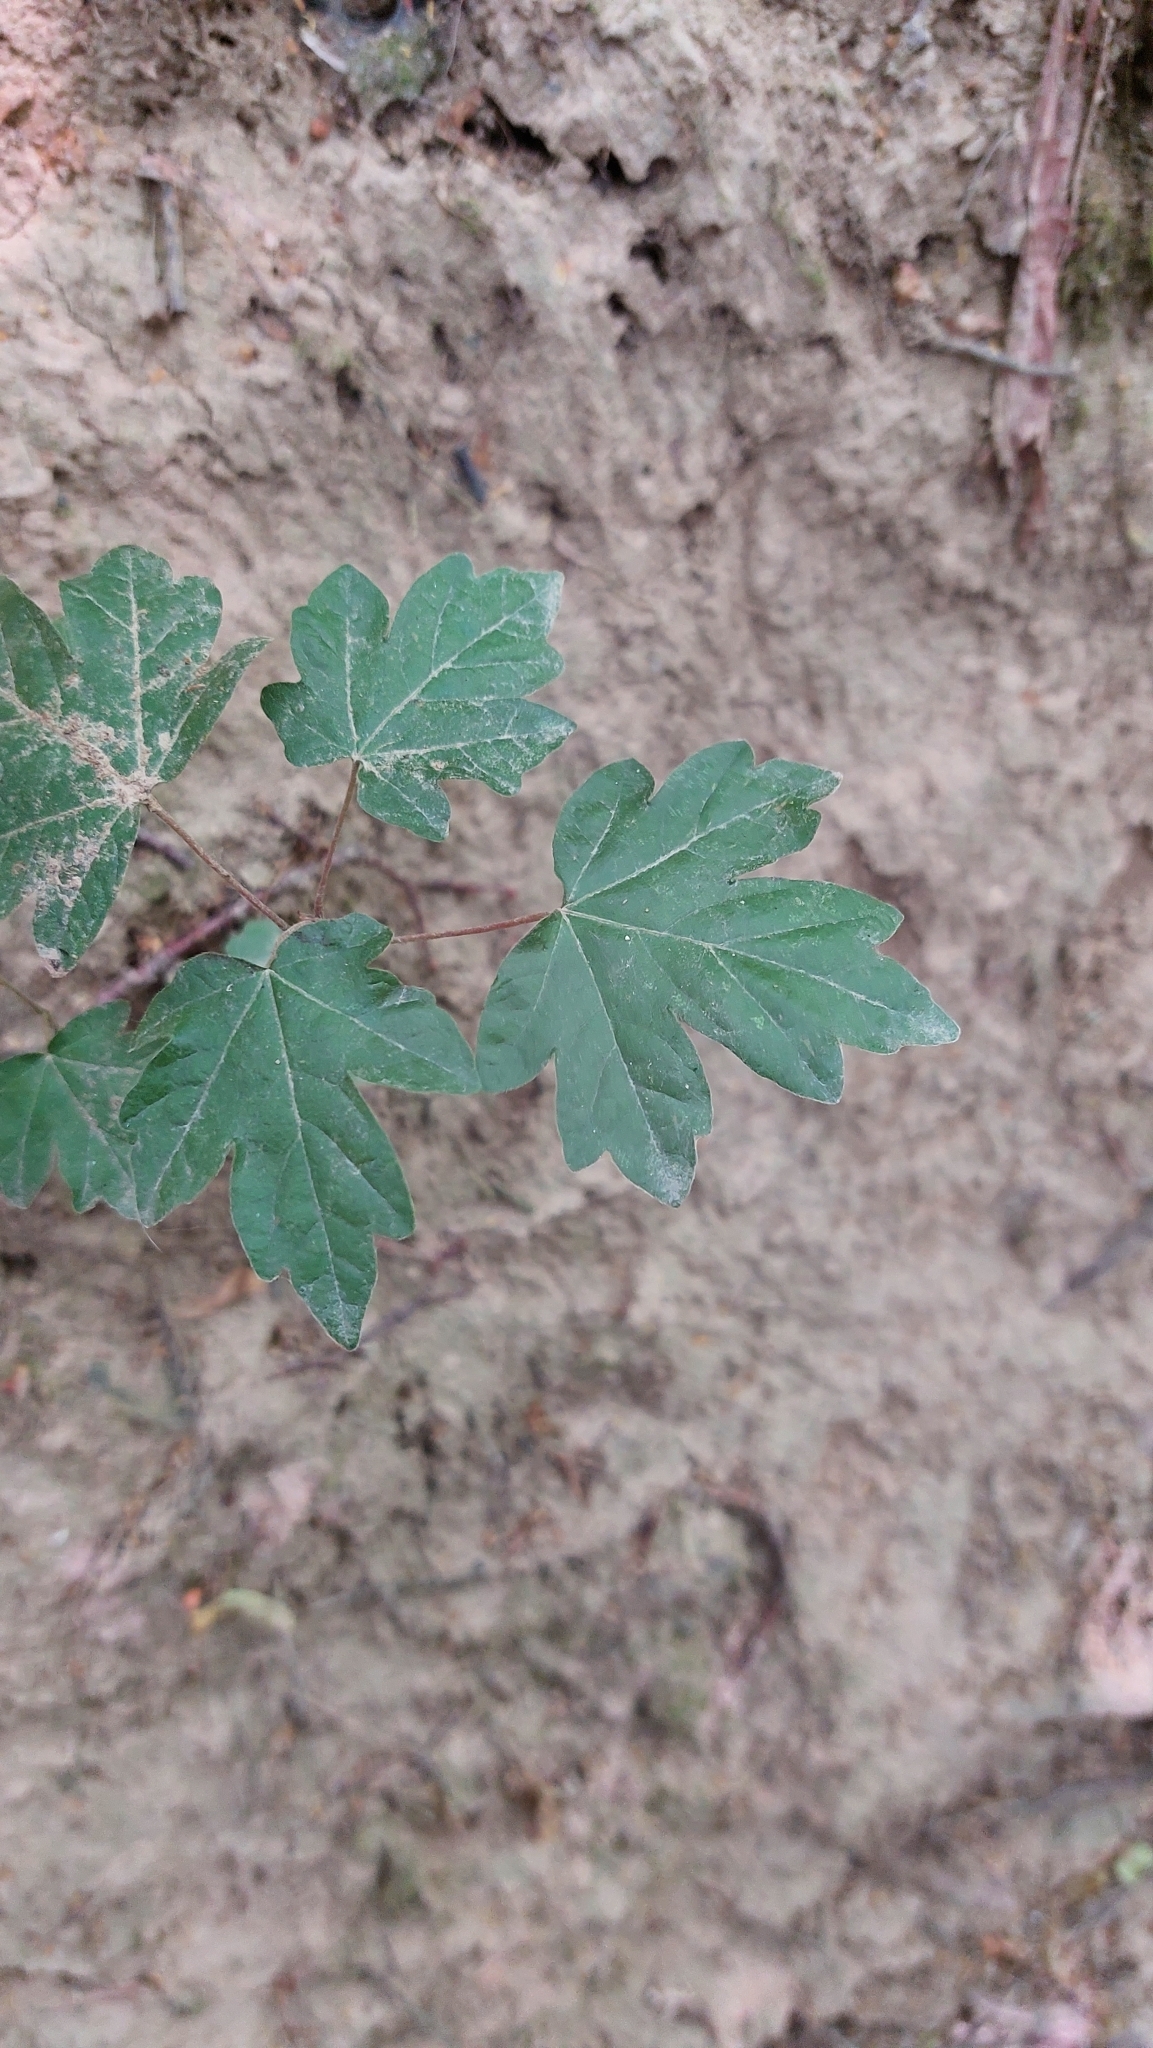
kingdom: Plantae
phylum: Tracheophyta
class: Magnoliopsida
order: Sapindales
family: Sapindaceae
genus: Acer
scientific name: Acer campestre
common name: Field maple
